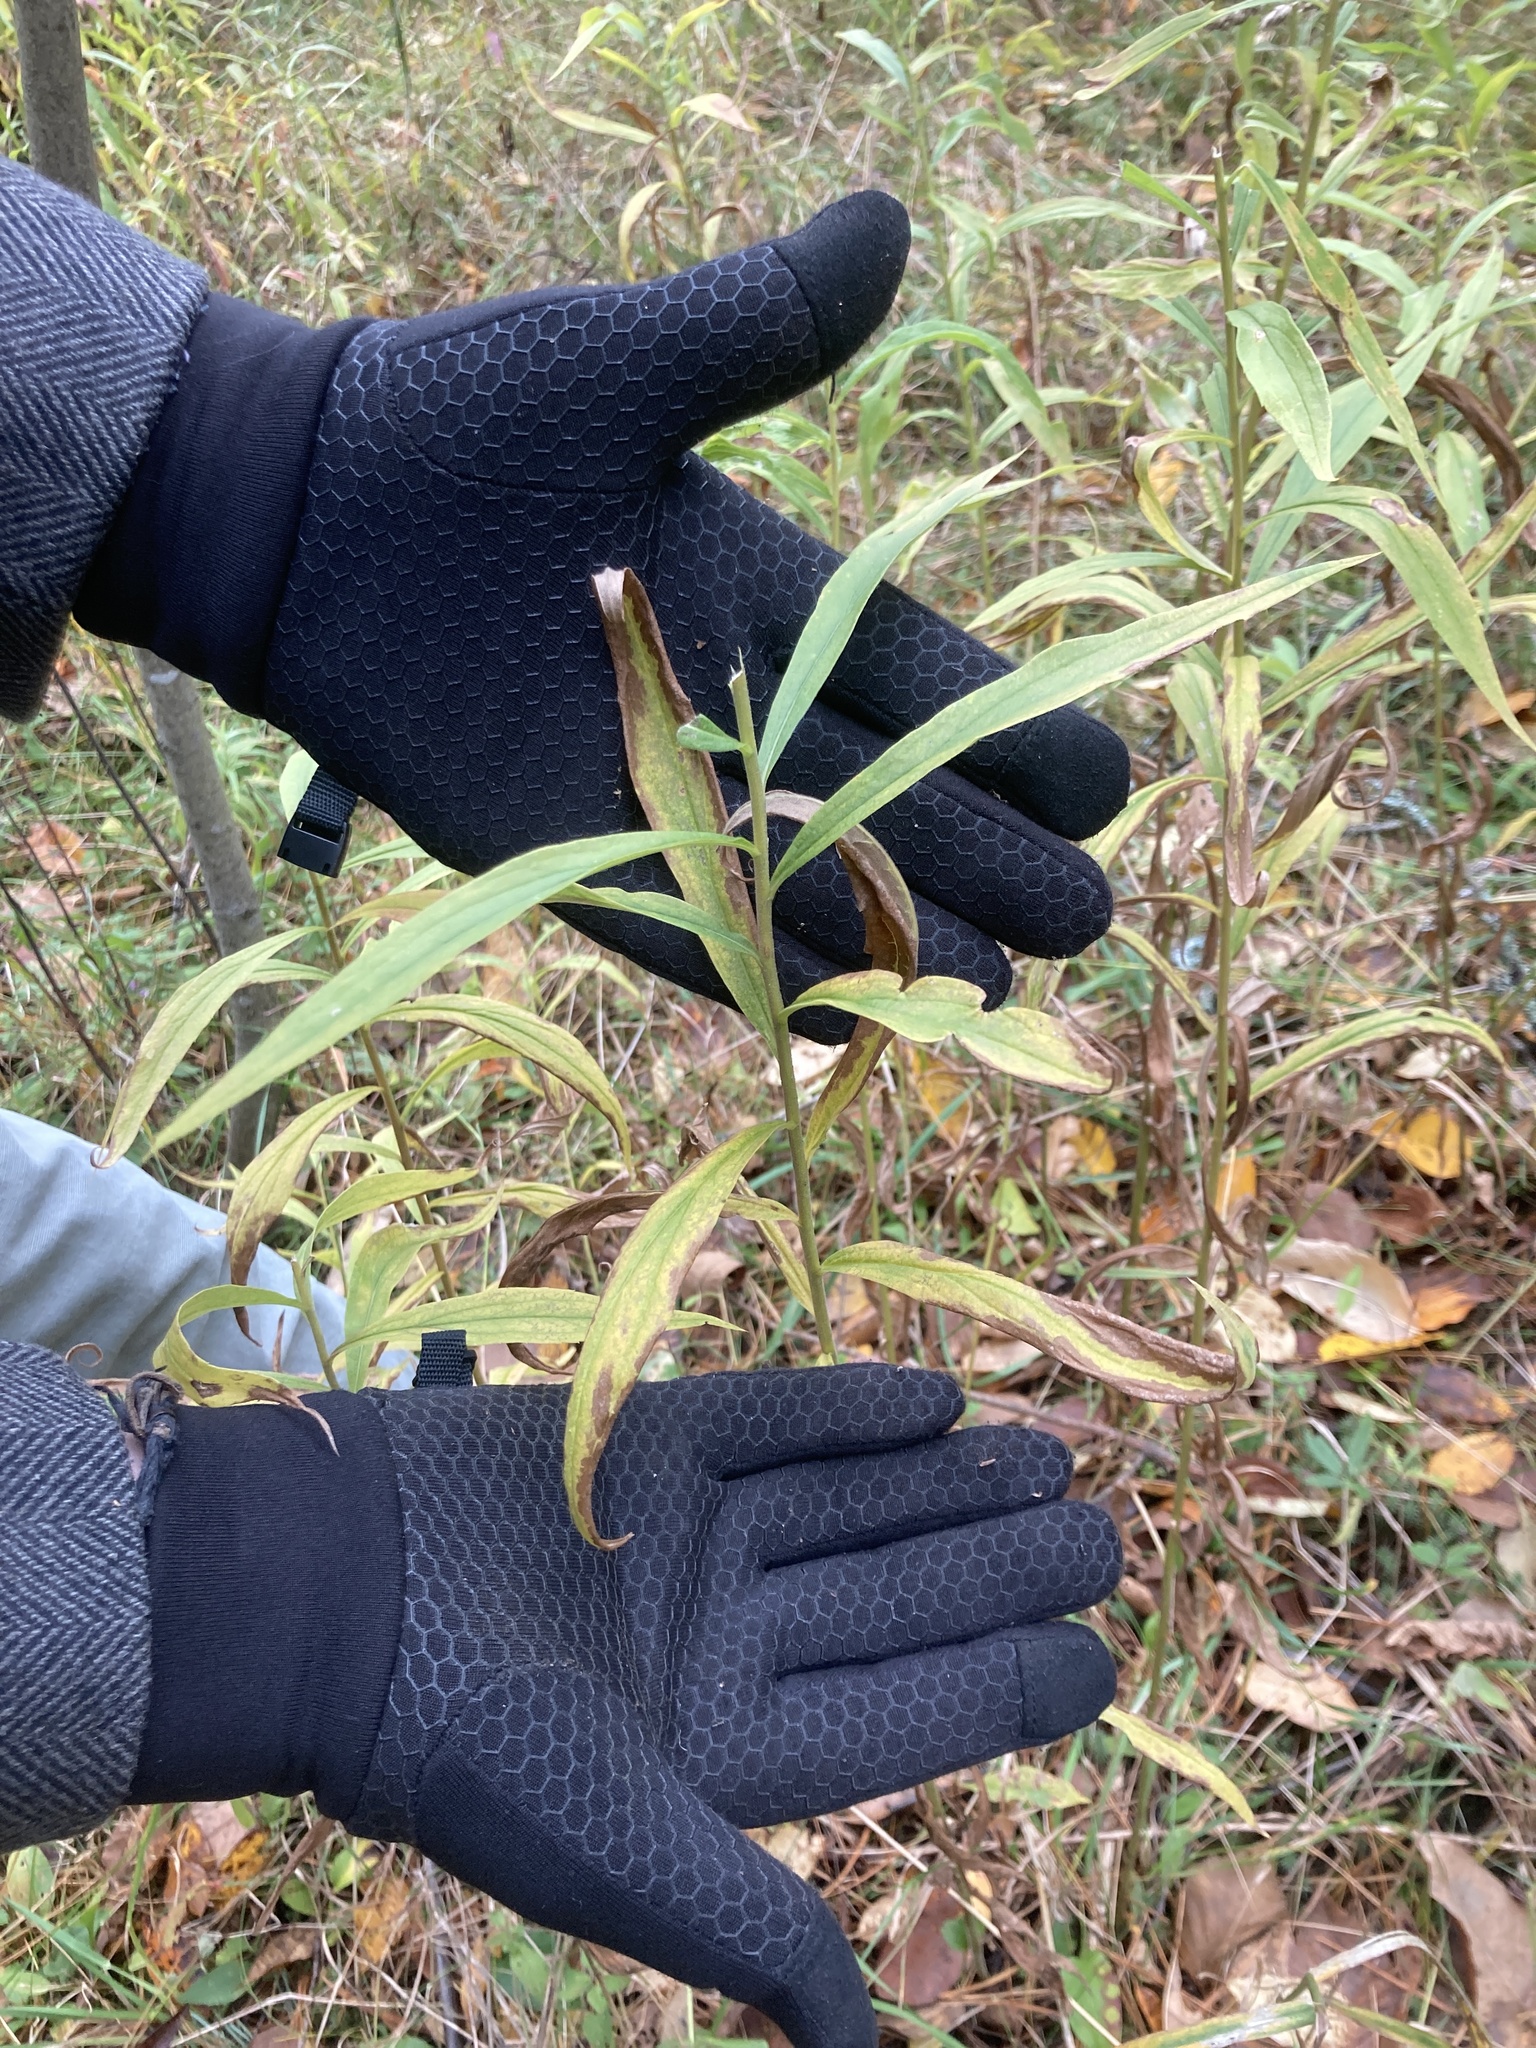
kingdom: Plantae
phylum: Tracheophyta
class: Magnoliopsida
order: Asterales
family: Asteraceae
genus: Solidago
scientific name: Solidago canadensis
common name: Canada goldenrod
